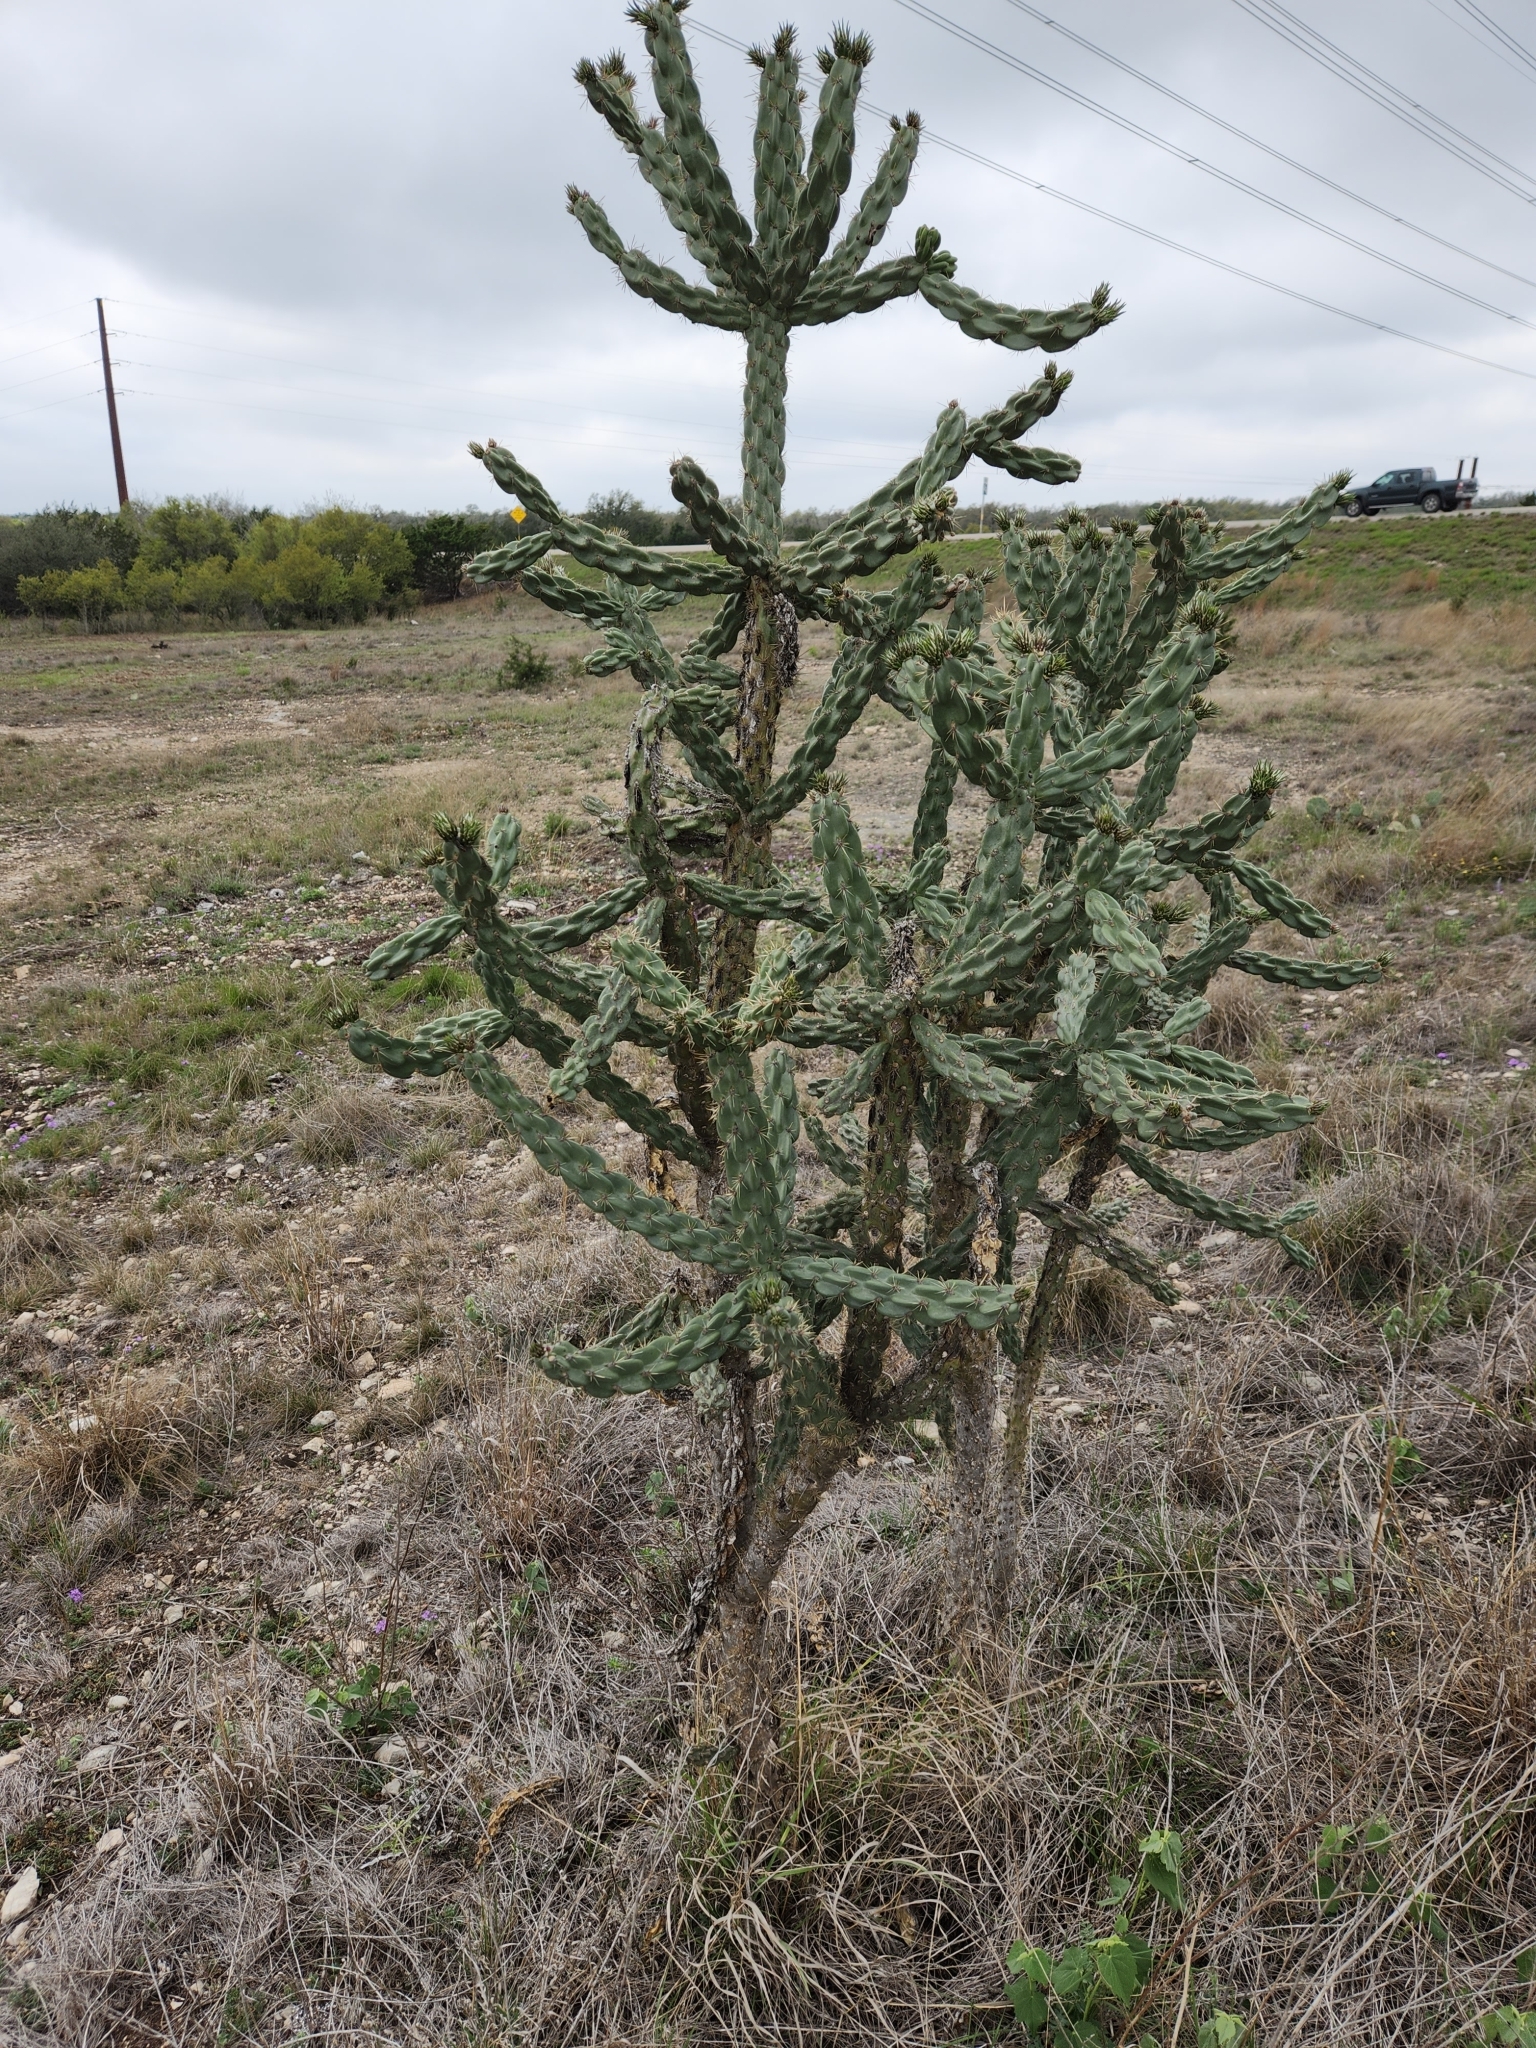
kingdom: Plantae
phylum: Tracheophyta
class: Magnoliopsida
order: Caryophyllales
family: Cactaceae
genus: Cylindropuntia
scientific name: Cylindropuntia imbricata
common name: Candelabrum cactus
